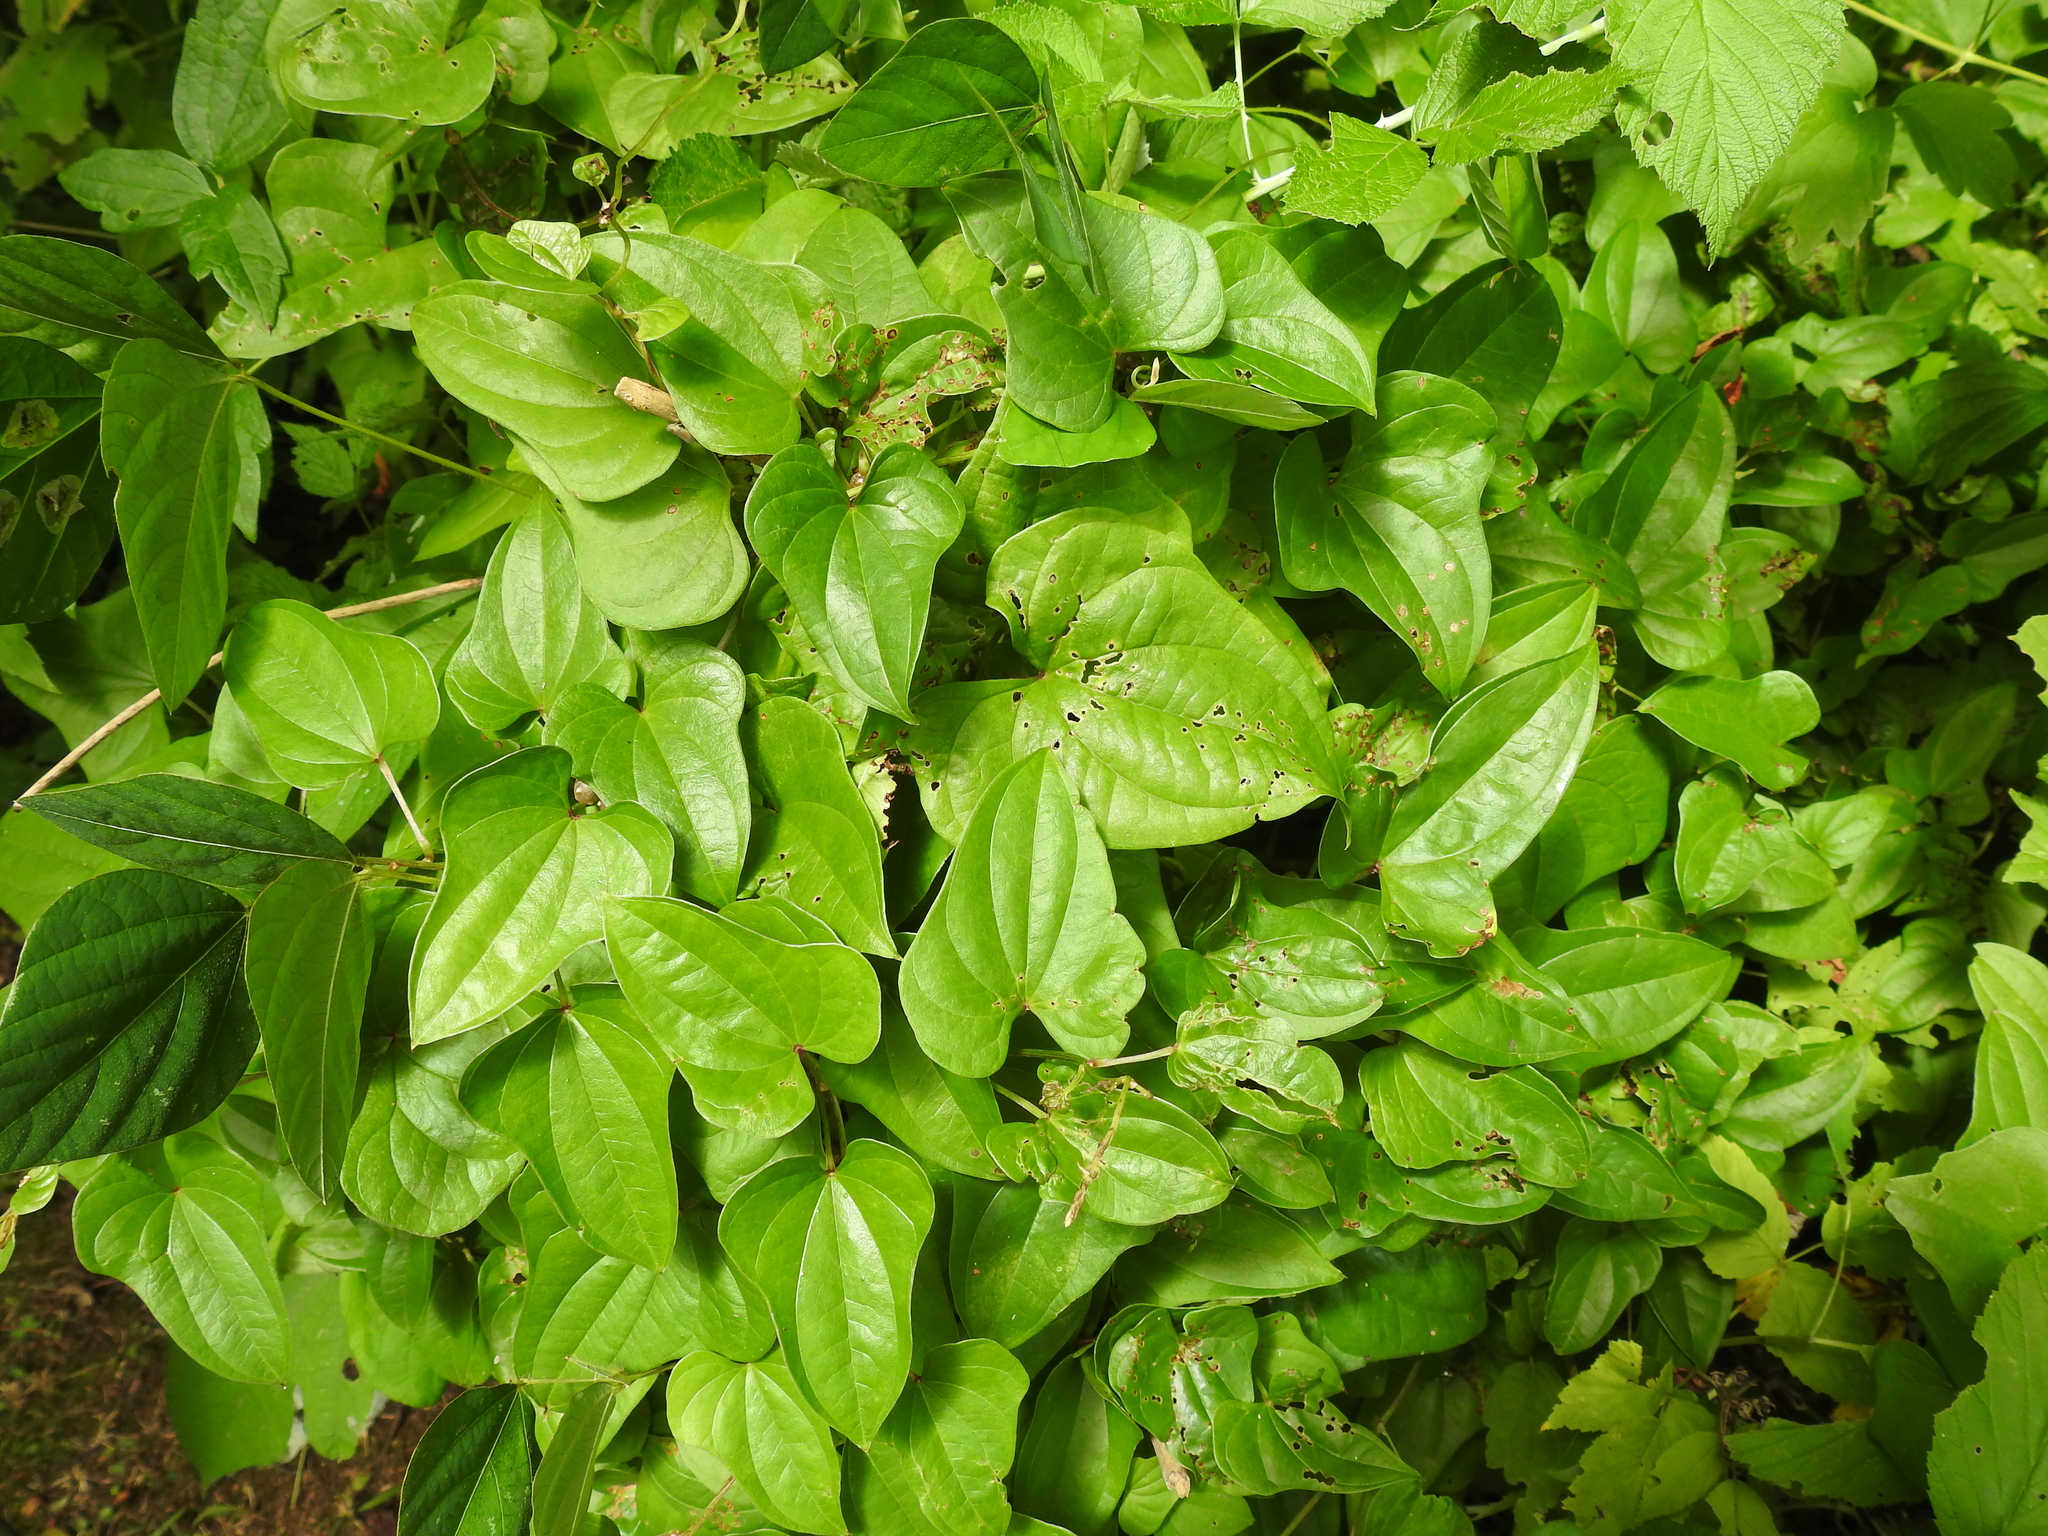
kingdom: Plantae
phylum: Tracheophyta
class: Liliopsida
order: Dioscoreales
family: Dioscoreaceae
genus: Dioscorea
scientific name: Dioscorea polystachya
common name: Chinese yam
